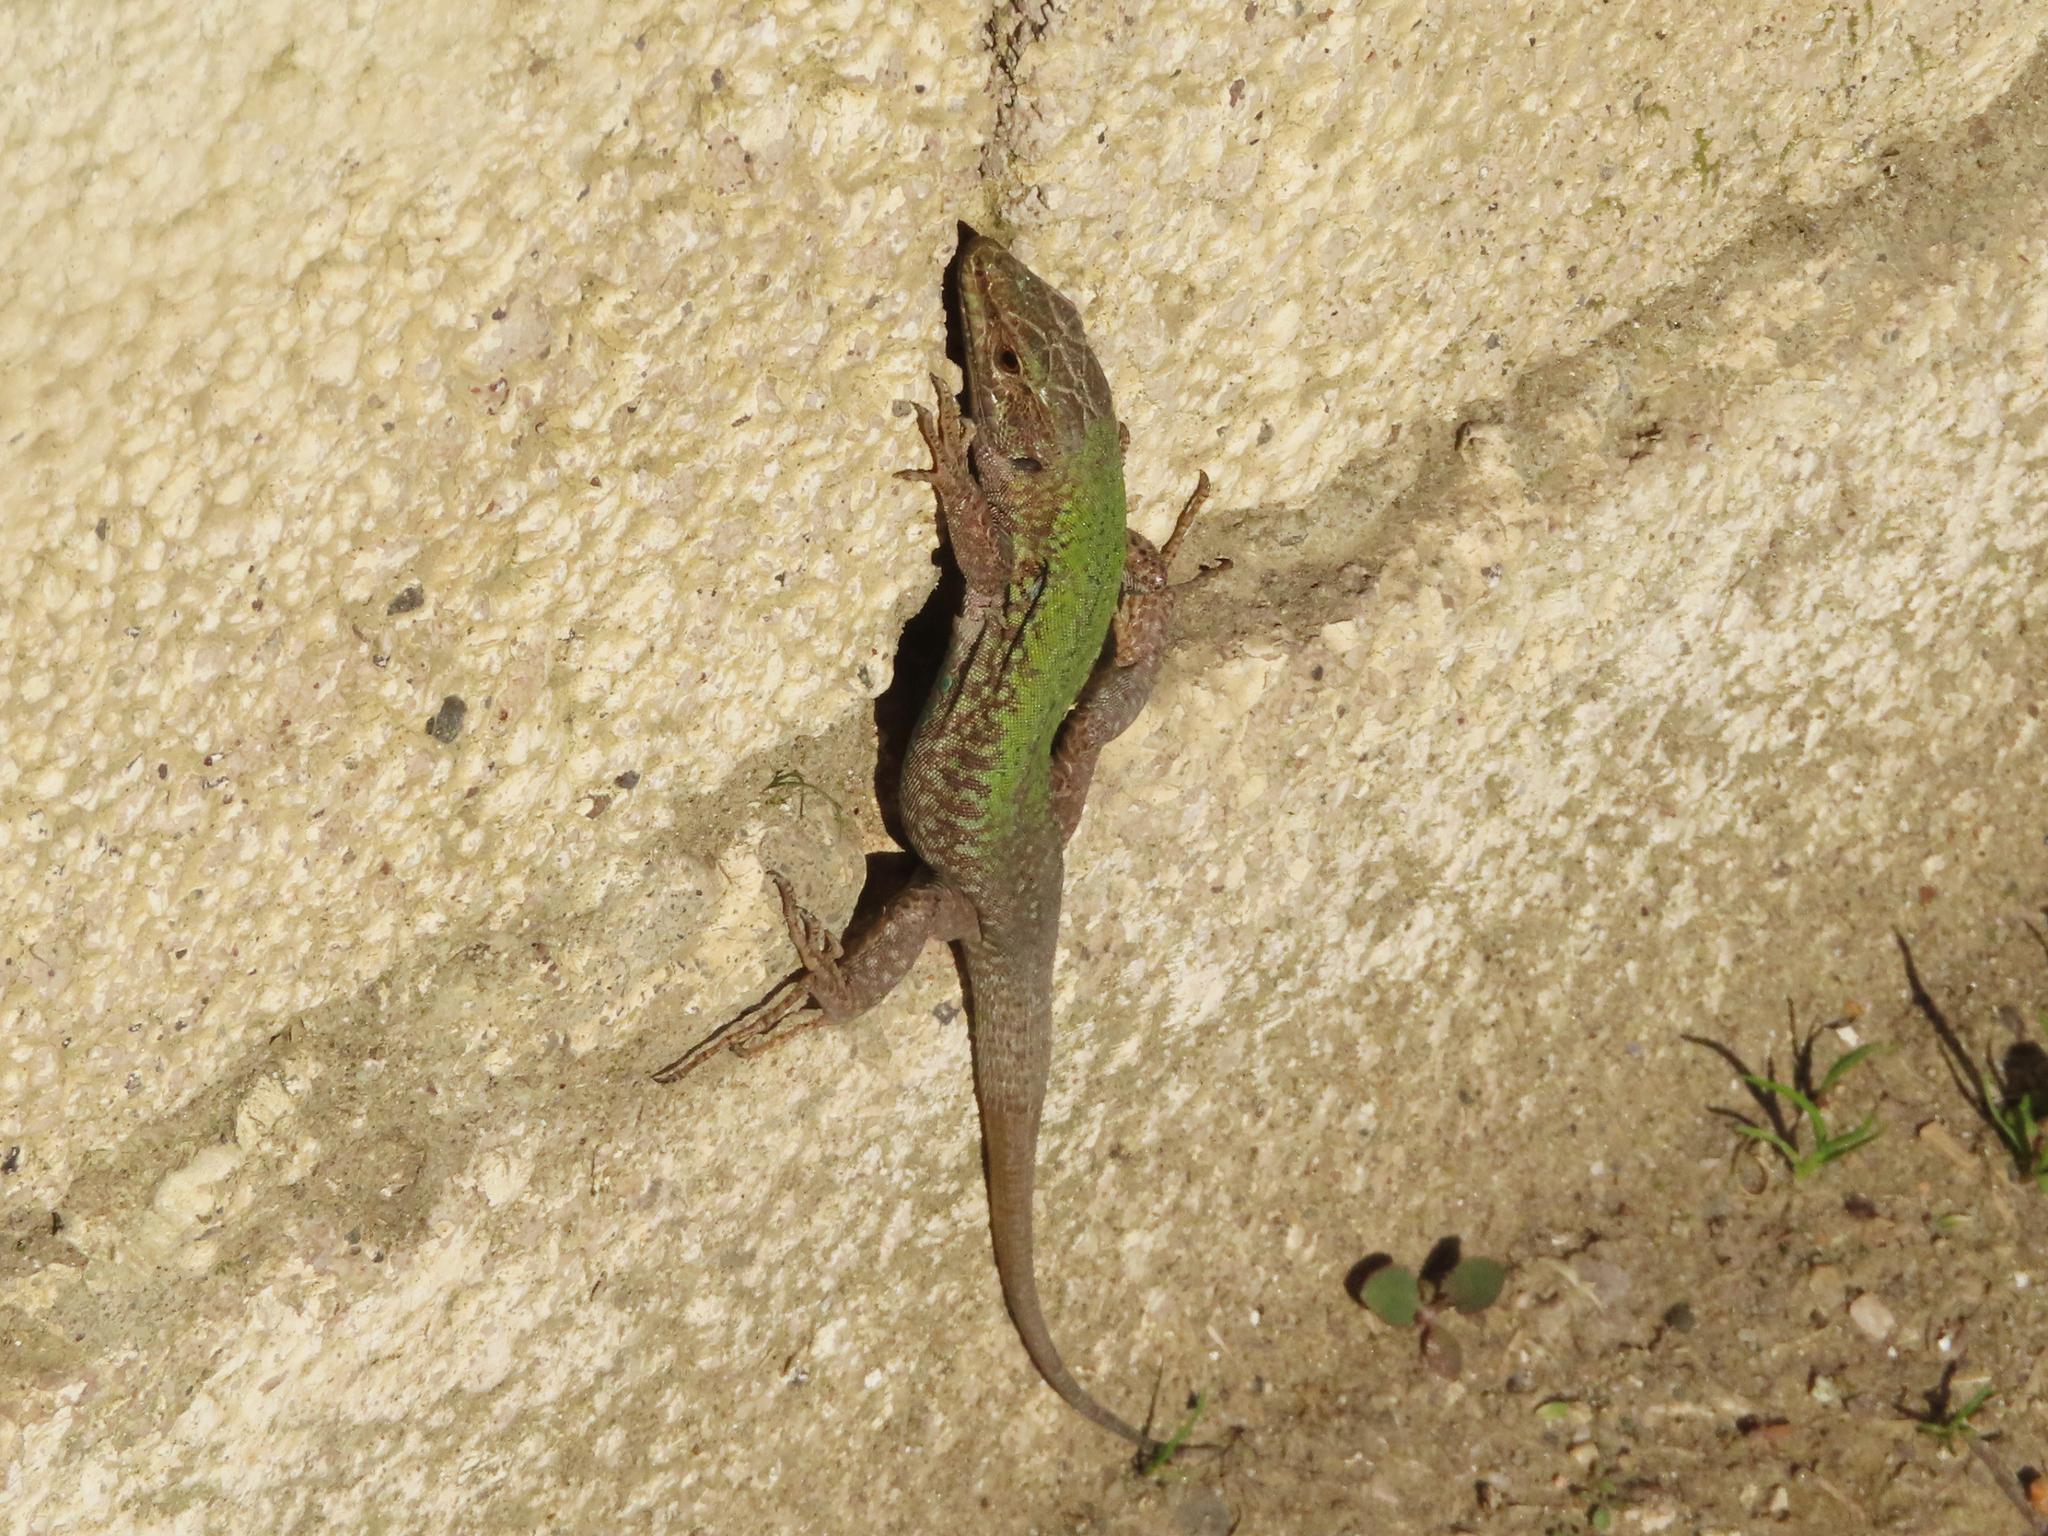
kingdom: Animalia
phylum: Chordata
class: Squamata
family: Lacertidae
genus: Podarcis
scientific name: Podarcis siculus
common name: Italian wall lizard
